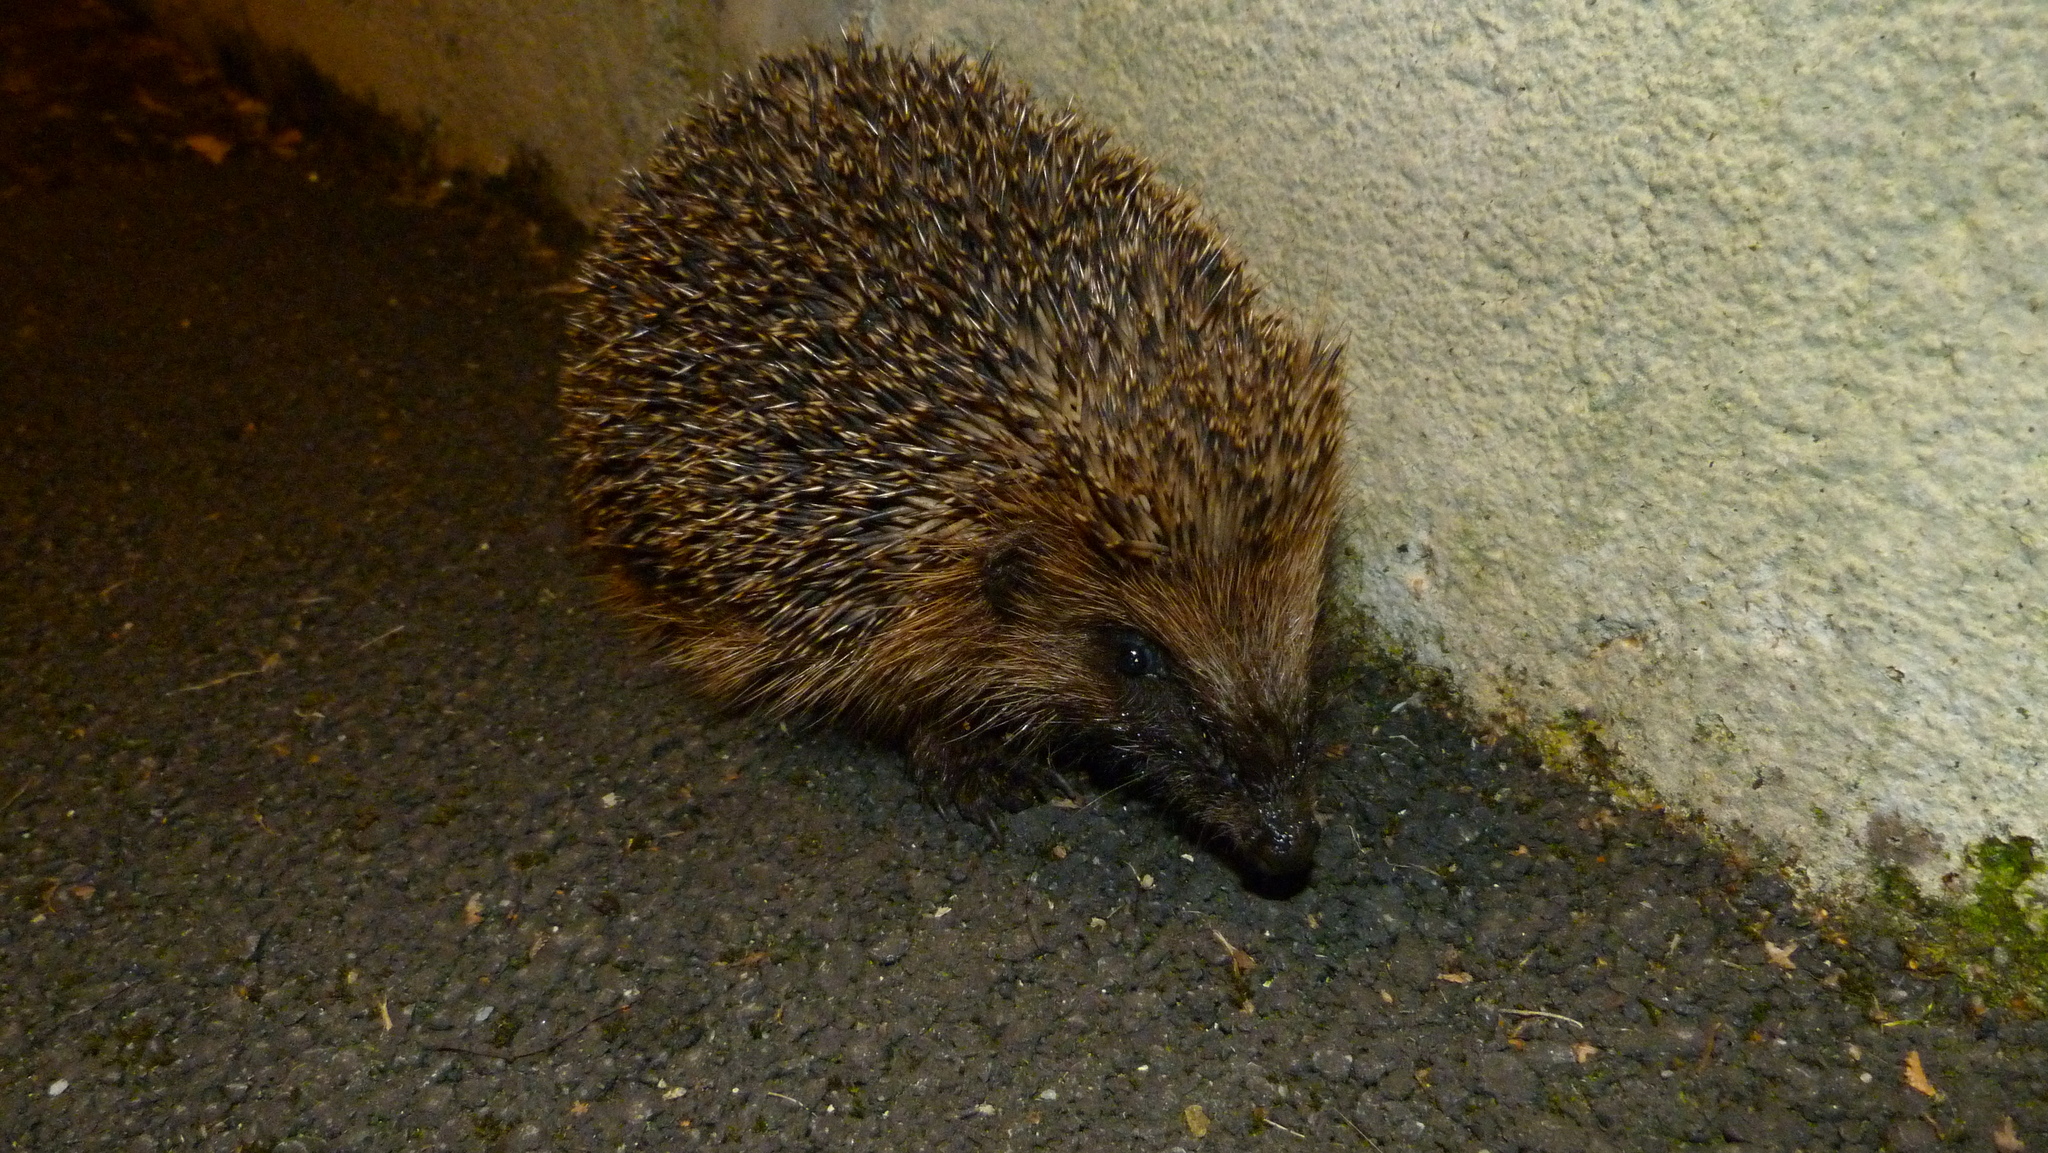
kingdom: Animalia
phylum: Chordata
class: Mammalia
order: Erinaceomorpha
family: Erinaceidae
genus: Erinaceus
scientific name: Erinaceus europaeus
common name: West european hedgehog
